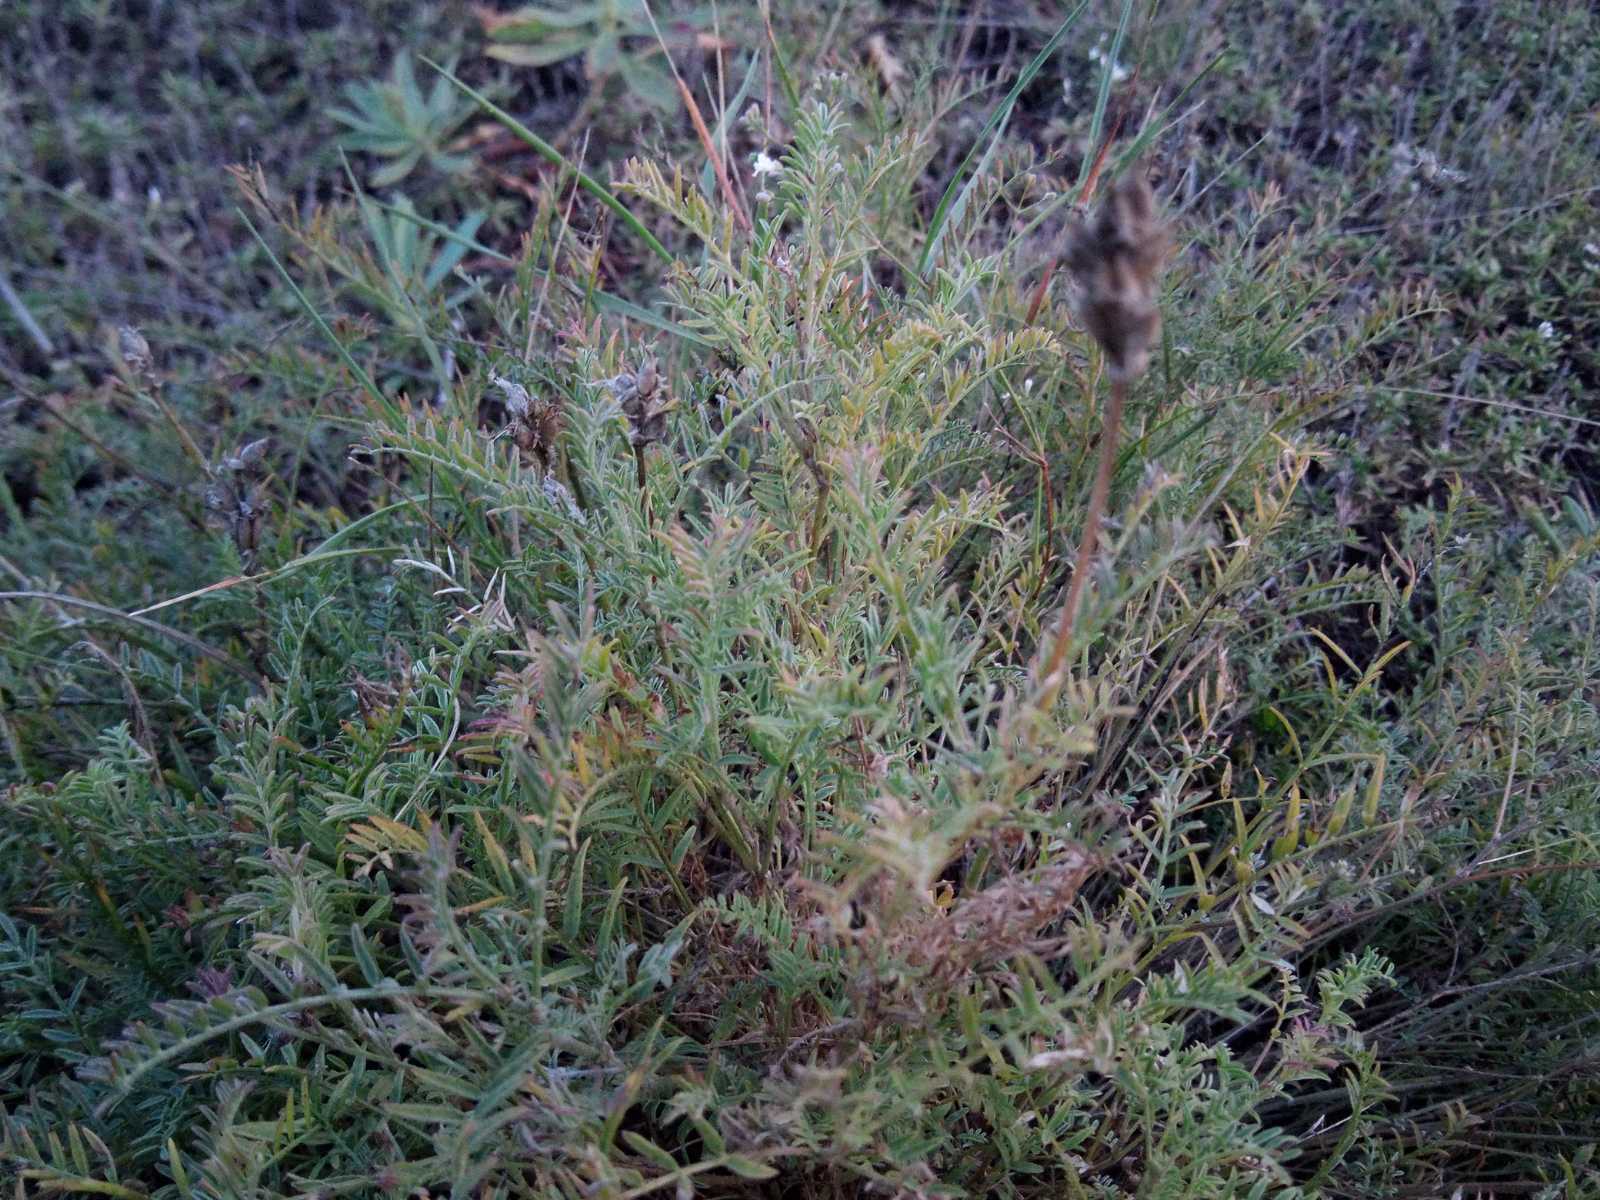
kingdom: Plantae
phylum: Tracheophyta
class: Magnoliopsida
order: Fabales
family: Fabaceae
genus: Astragalus
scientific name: Astragalus onobrychis
